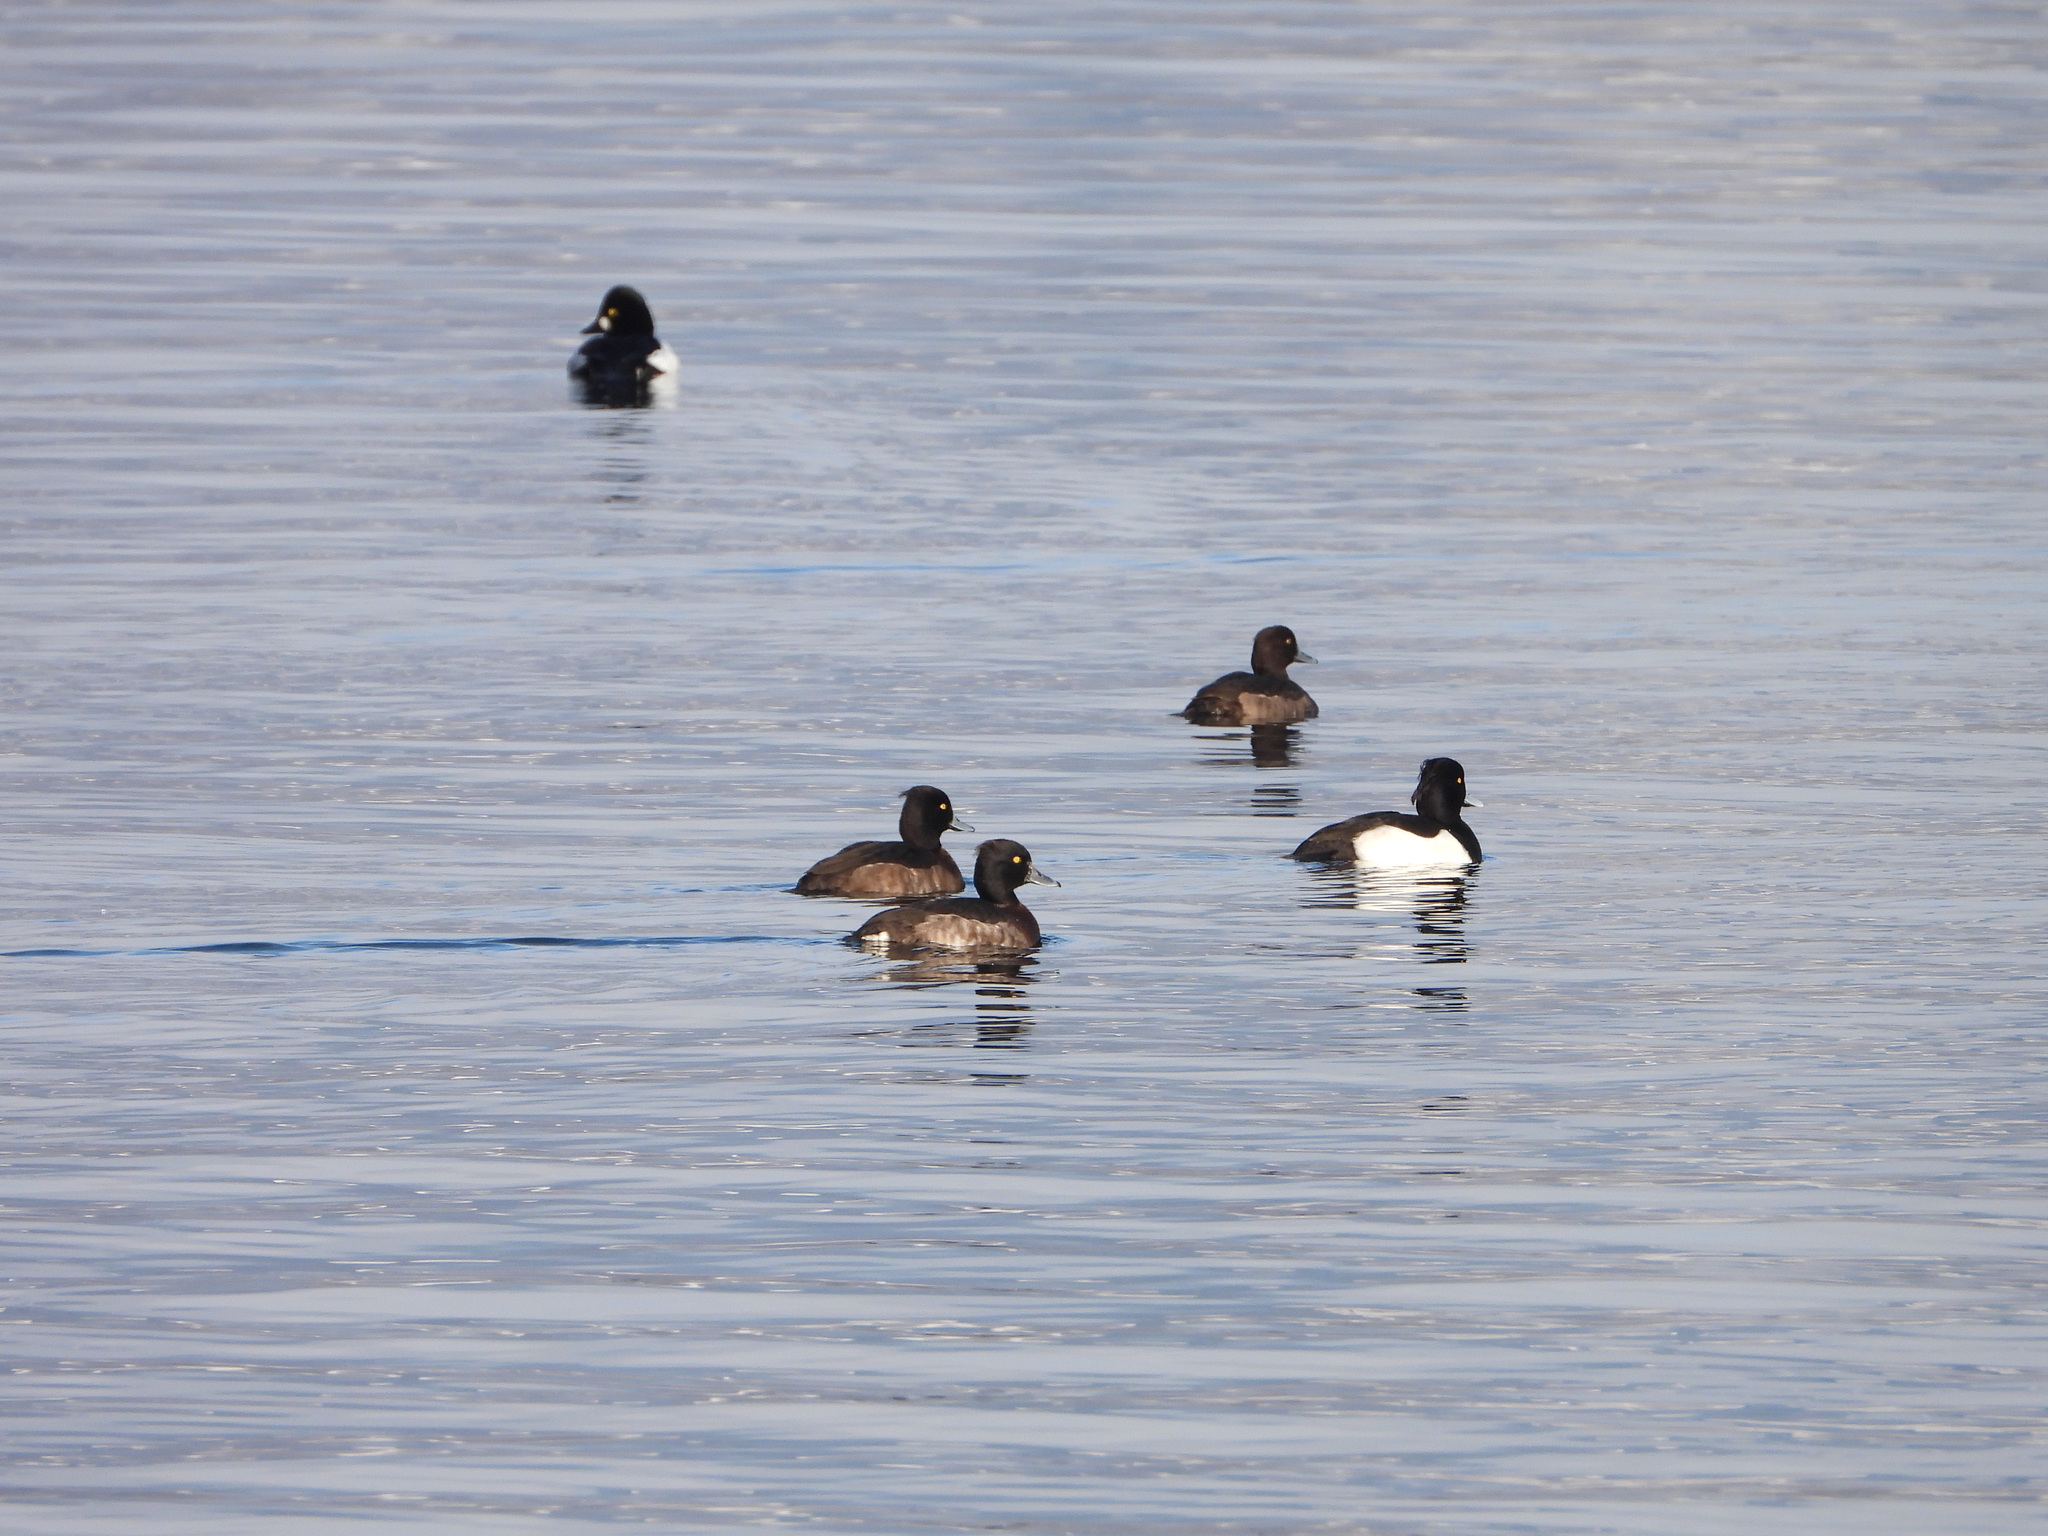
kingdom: Animalia
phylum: Chordata
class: Aves
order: Anseriformes
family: Anatidae
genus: Aythya
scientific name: Aythya fuligula
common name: Tufted duck
